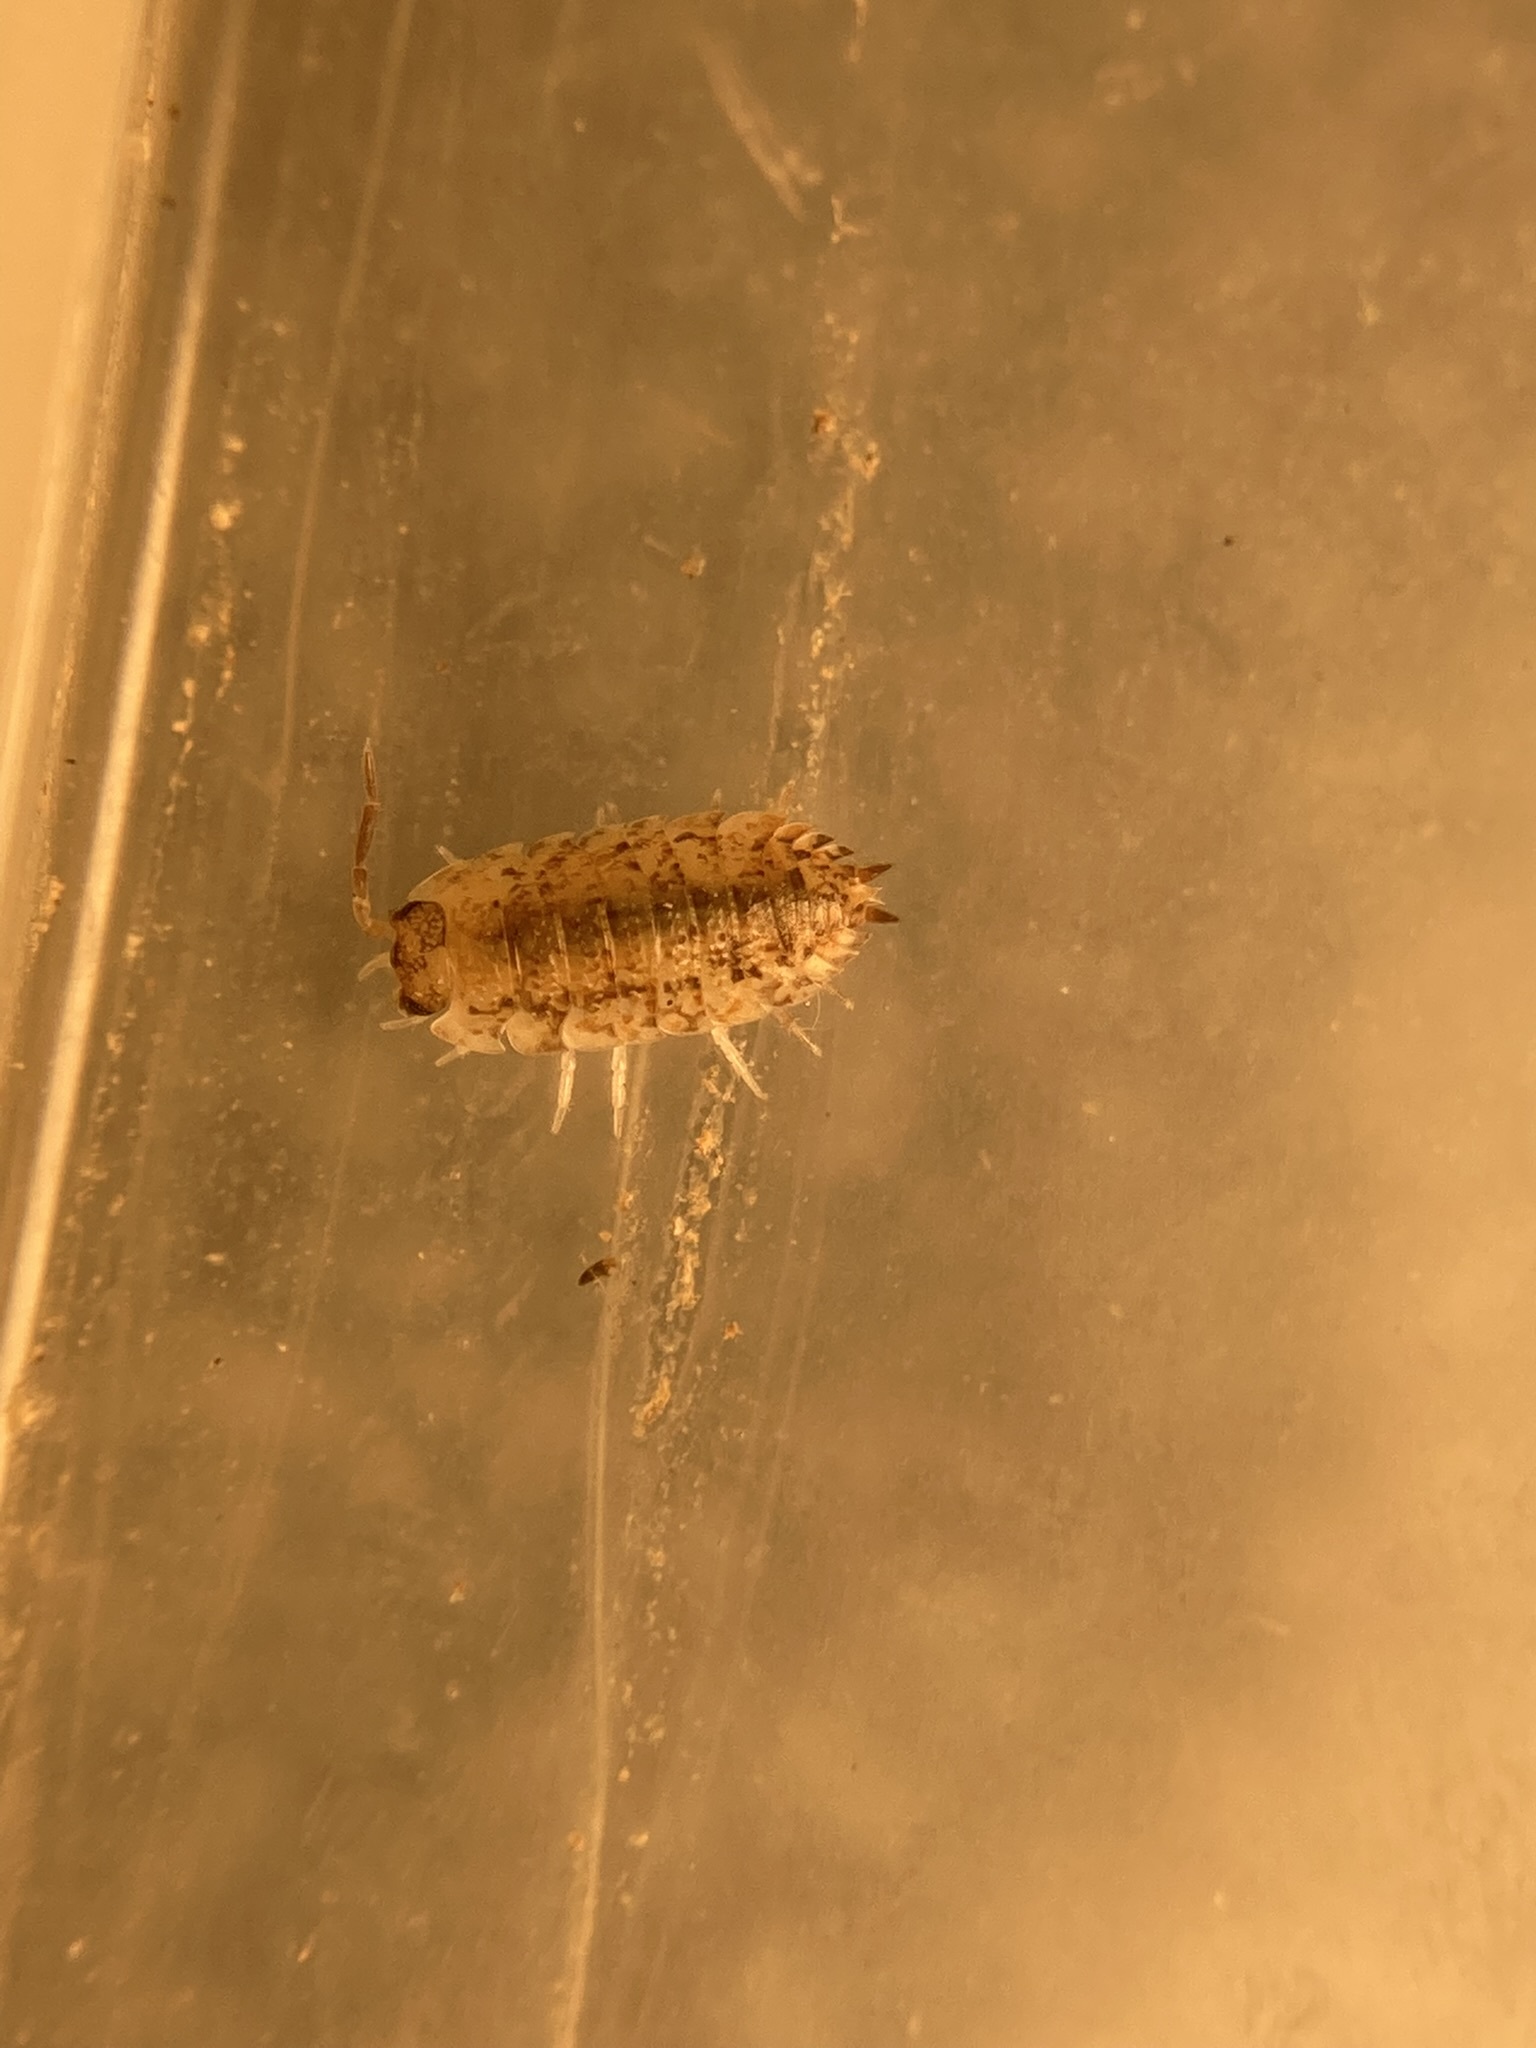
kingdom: Animalia
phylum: Arthropoda
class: Malacostraca
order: Isopoda
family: Porcellionidae
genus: Porcellio
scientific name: Porcellio scaber
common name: Common rough woodlouse
